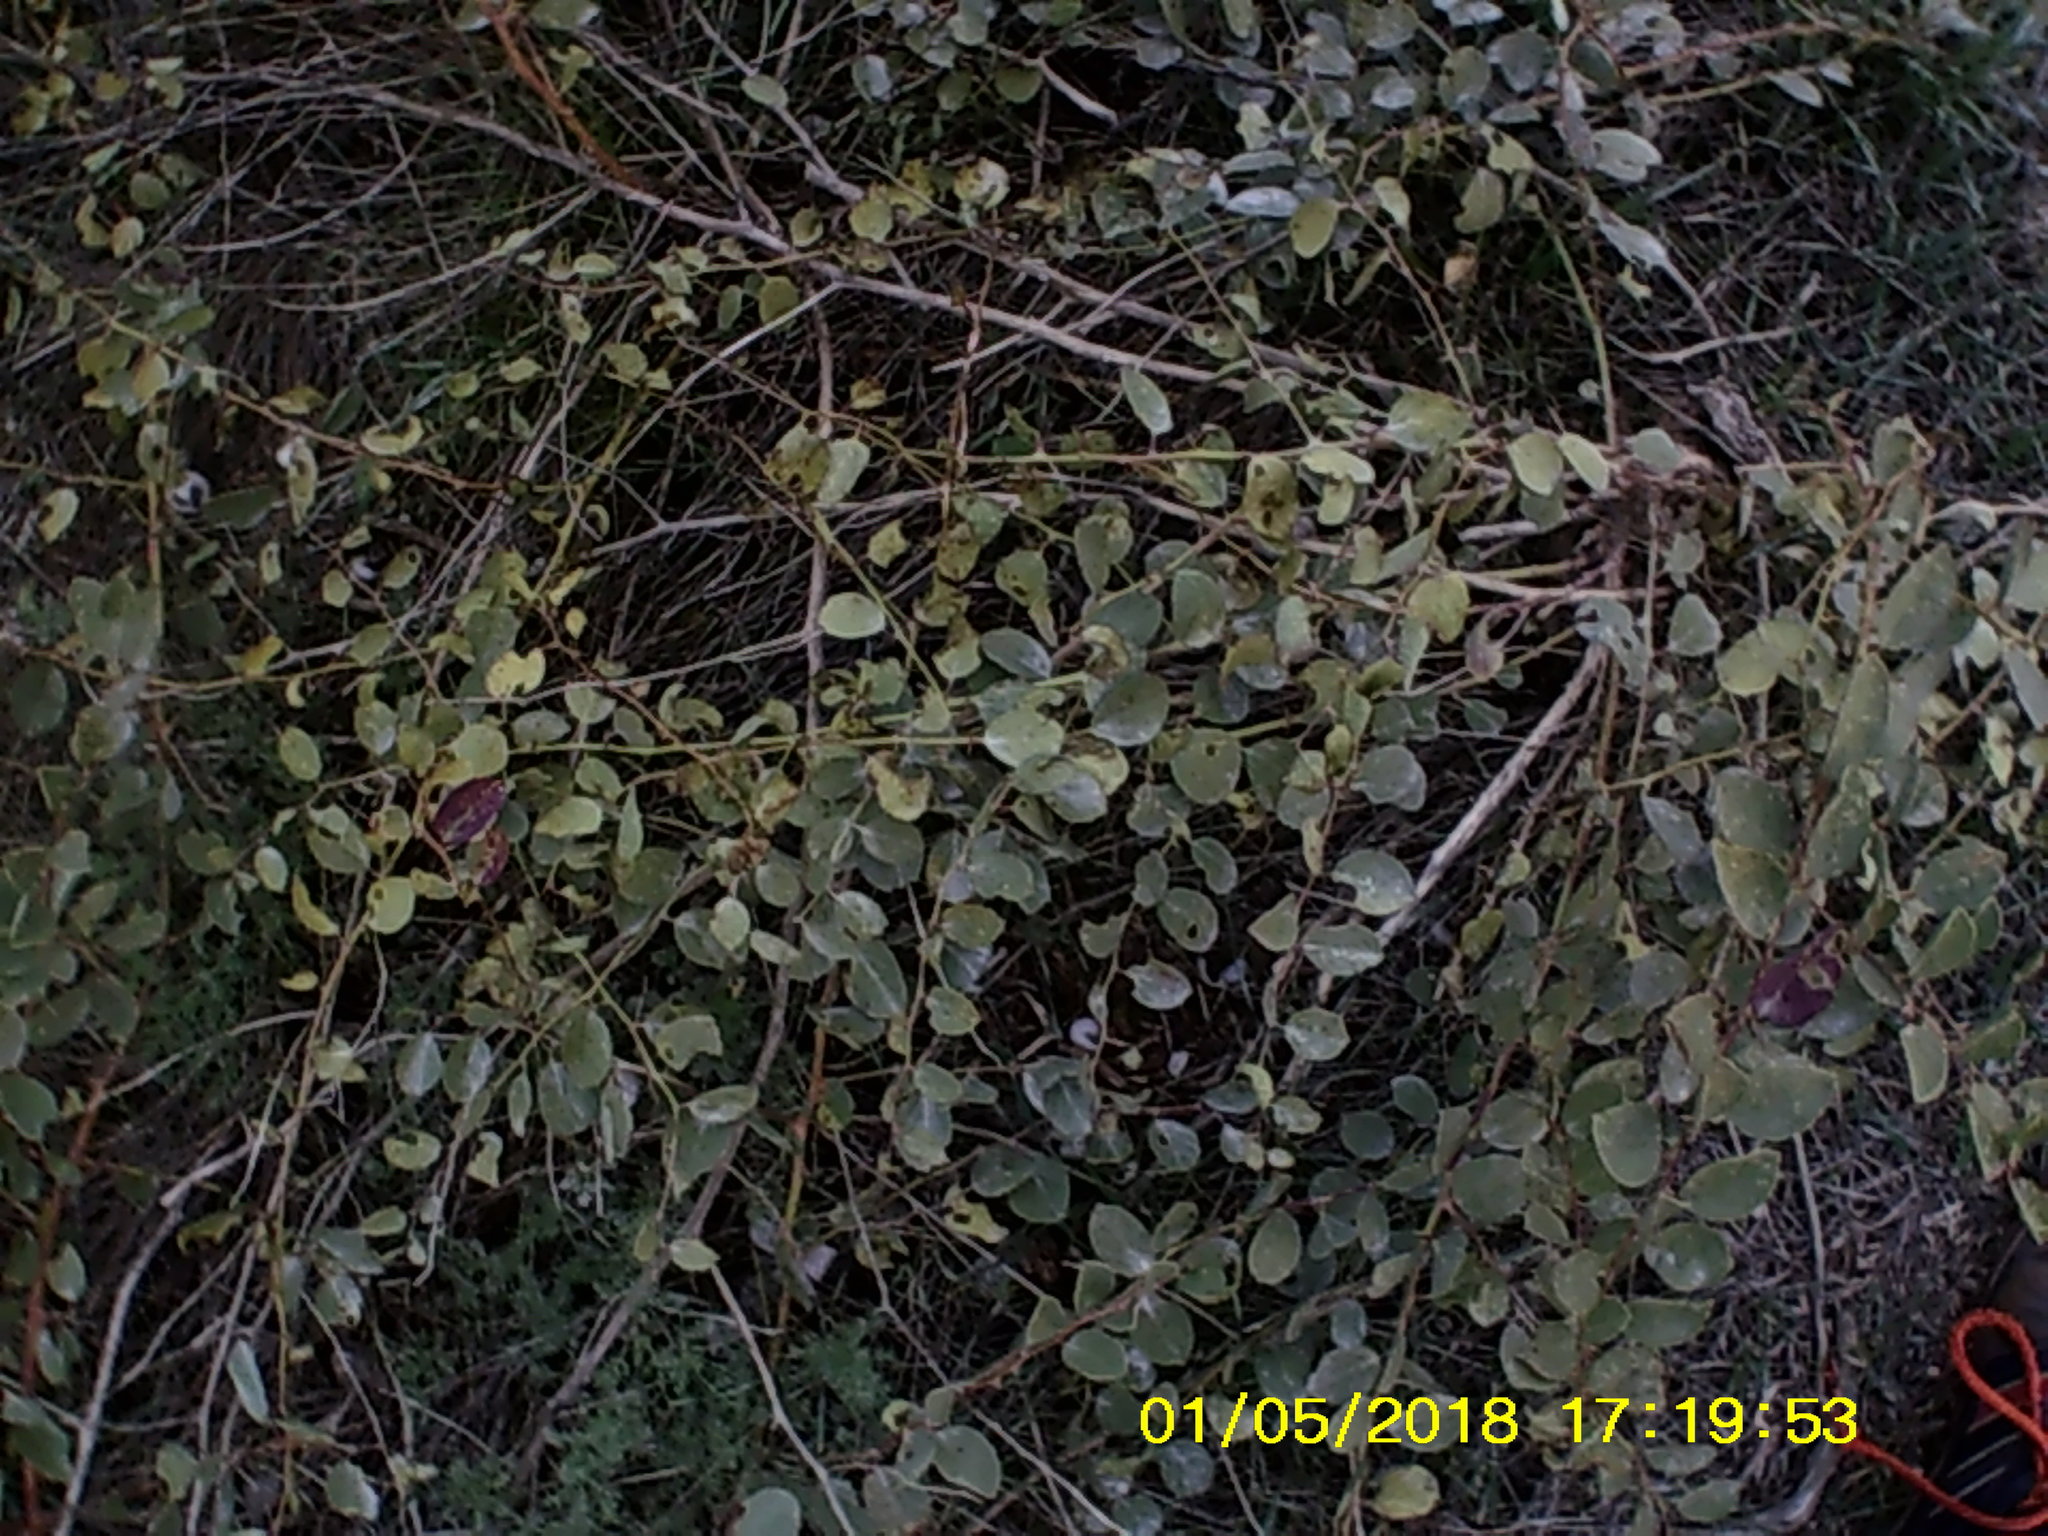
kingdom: Plantae
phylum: Tracheophyta
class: Magnoliopsida
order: Brassicales
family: Capparaceae
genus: Capparis
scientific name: Capparis spinosa
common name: Caper
